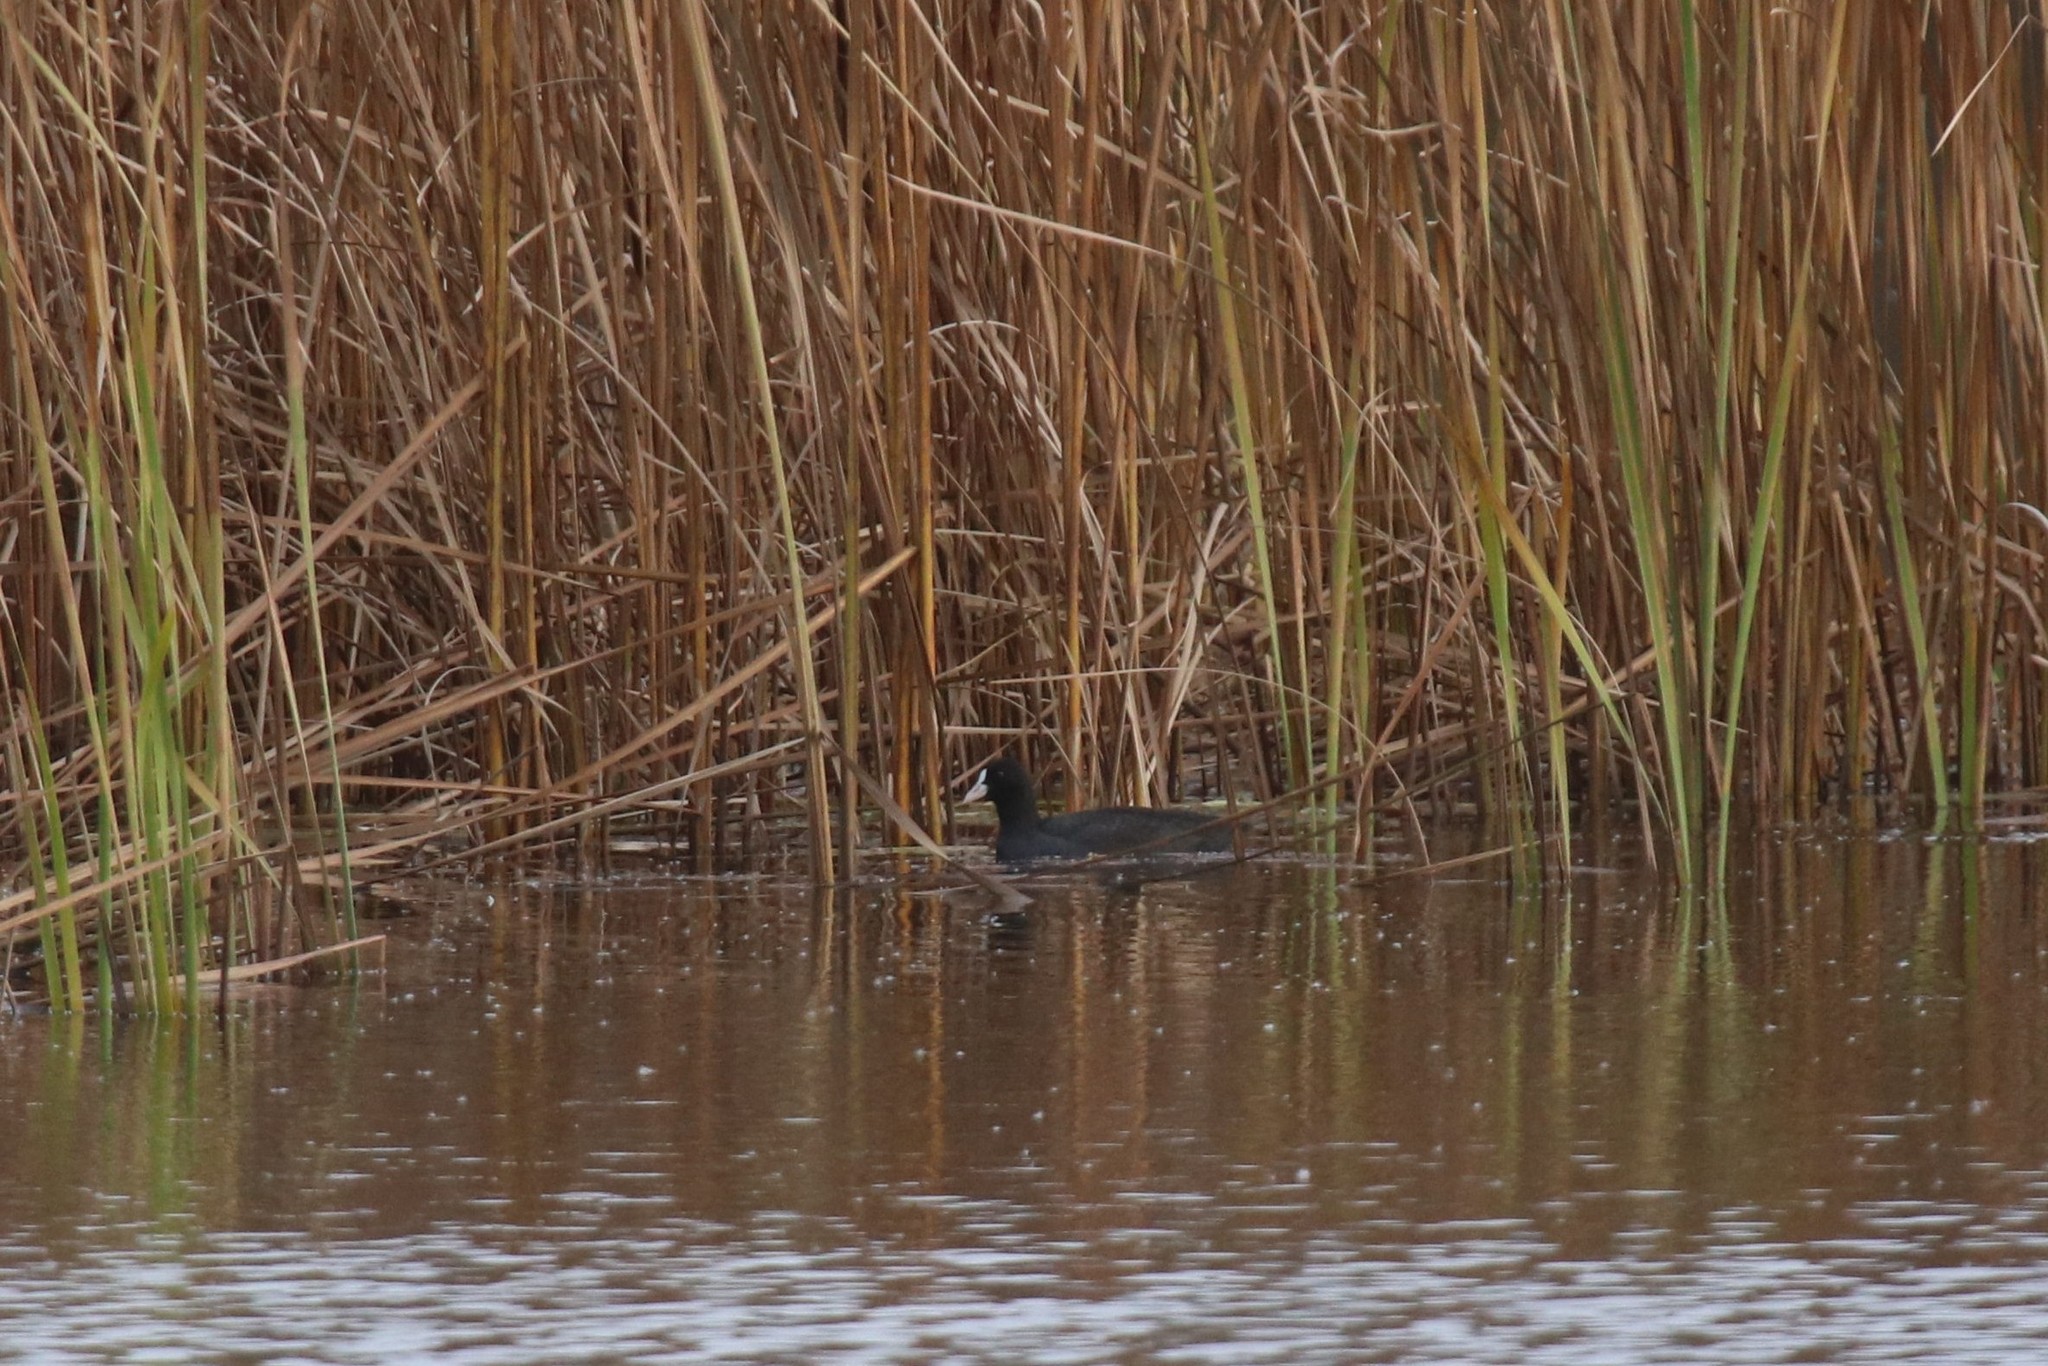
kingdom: Animalia
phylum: Chordata
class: Aves
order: Gruiformes
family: Rallidae
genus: Fulica
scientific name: Fulica atra
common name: Eurasian coot
